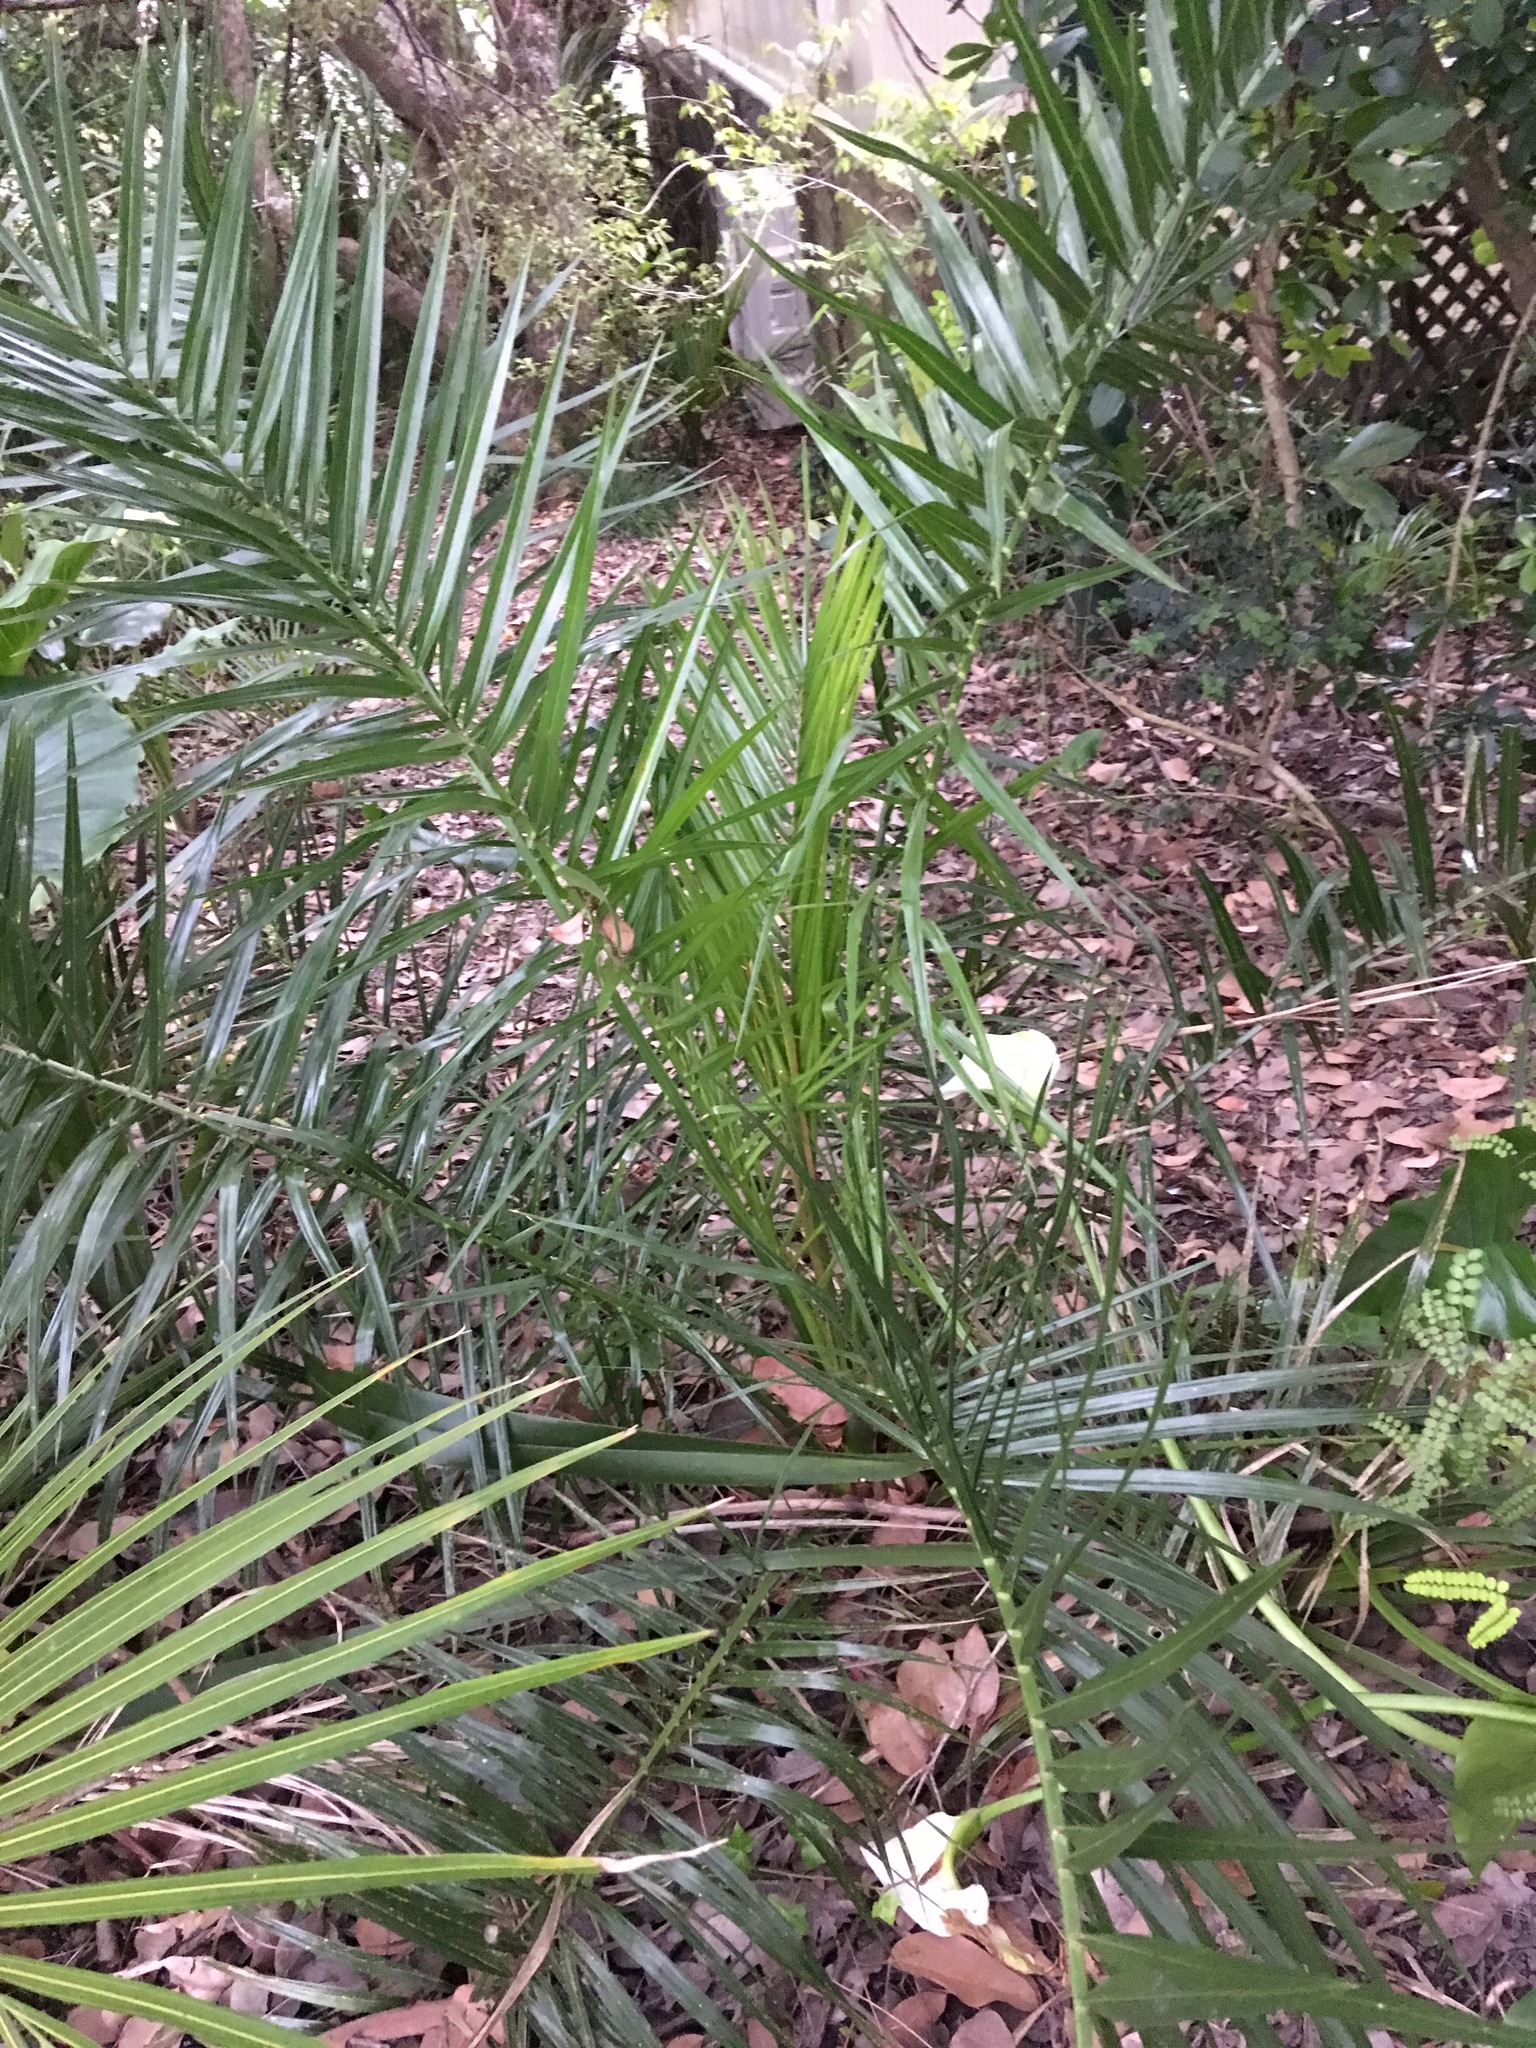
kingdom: Plantae
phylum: Tracheophyta
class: Liliopsida
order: Arecales
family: Arecaceae
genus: Phoenix
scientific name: Phoenix canariensis
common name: Canary island date palm
